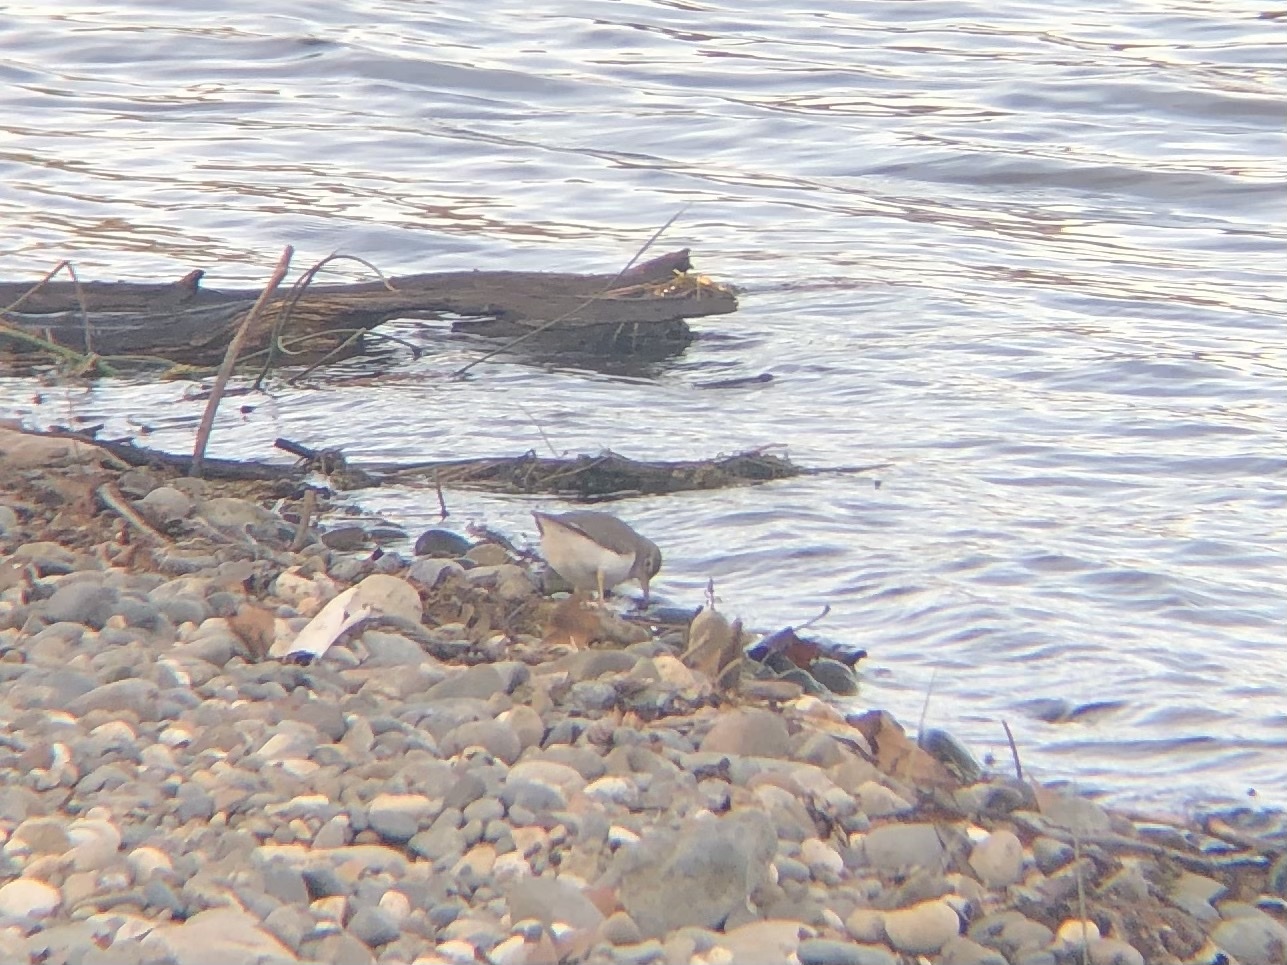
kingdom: Animalia
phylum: Chordata
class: Aves
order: Charadriiformes
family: Scolopacidae
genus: Actitis
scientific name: Actitis macularius
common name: Spotted sandpiper
